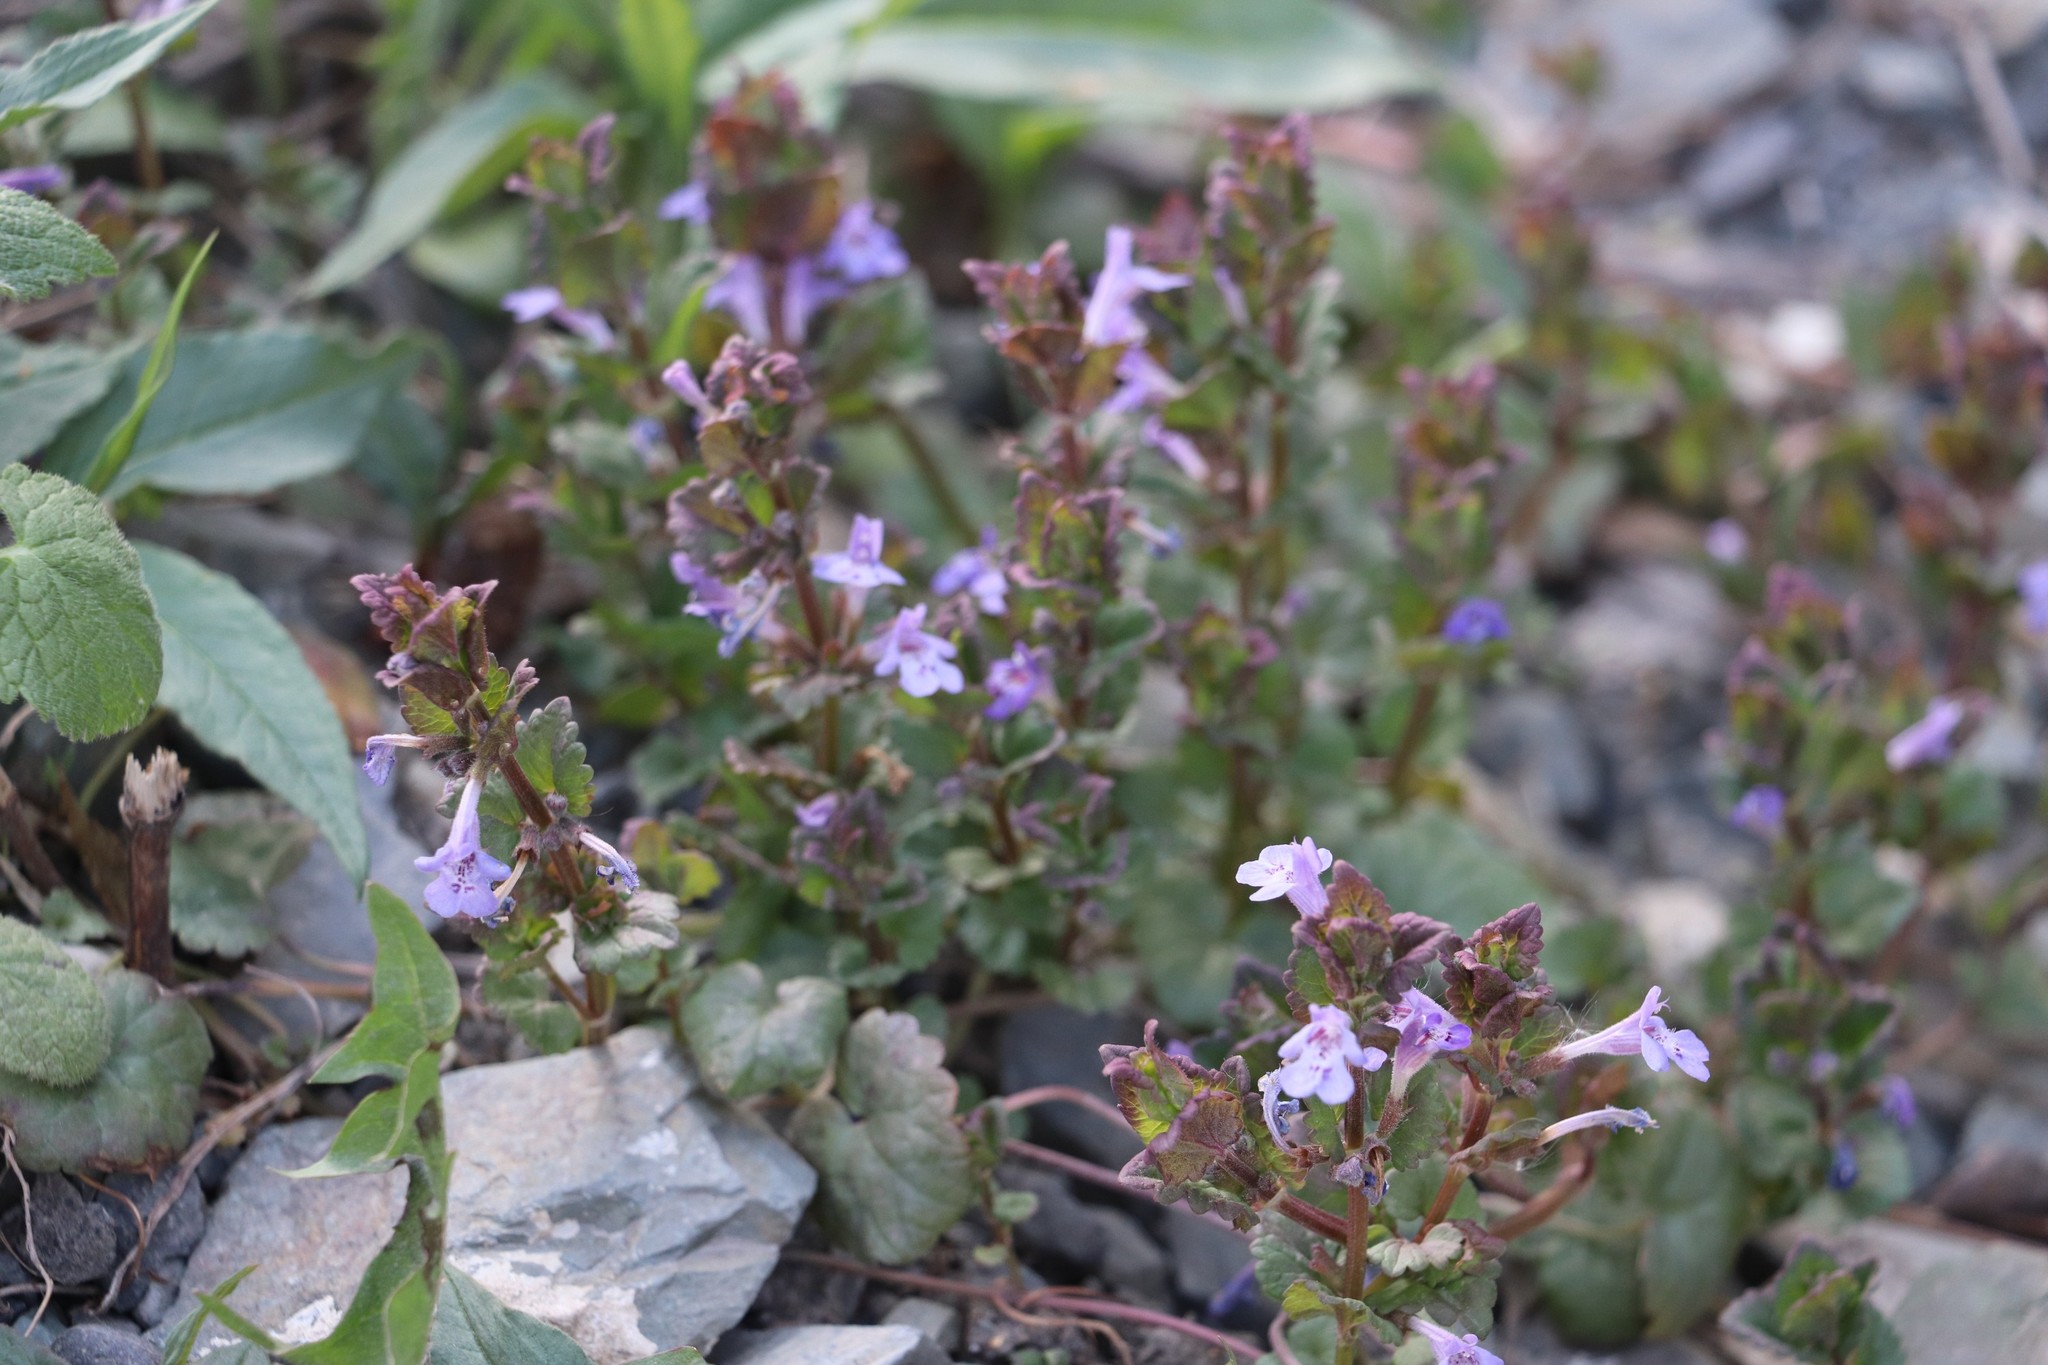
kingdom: Plantae
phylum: Tracheophyta
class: Magnoliopsida
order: Lamiales
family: Lamiaceae
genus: Glechoma
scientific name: Glechoma hederacea
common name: Ground ivy
